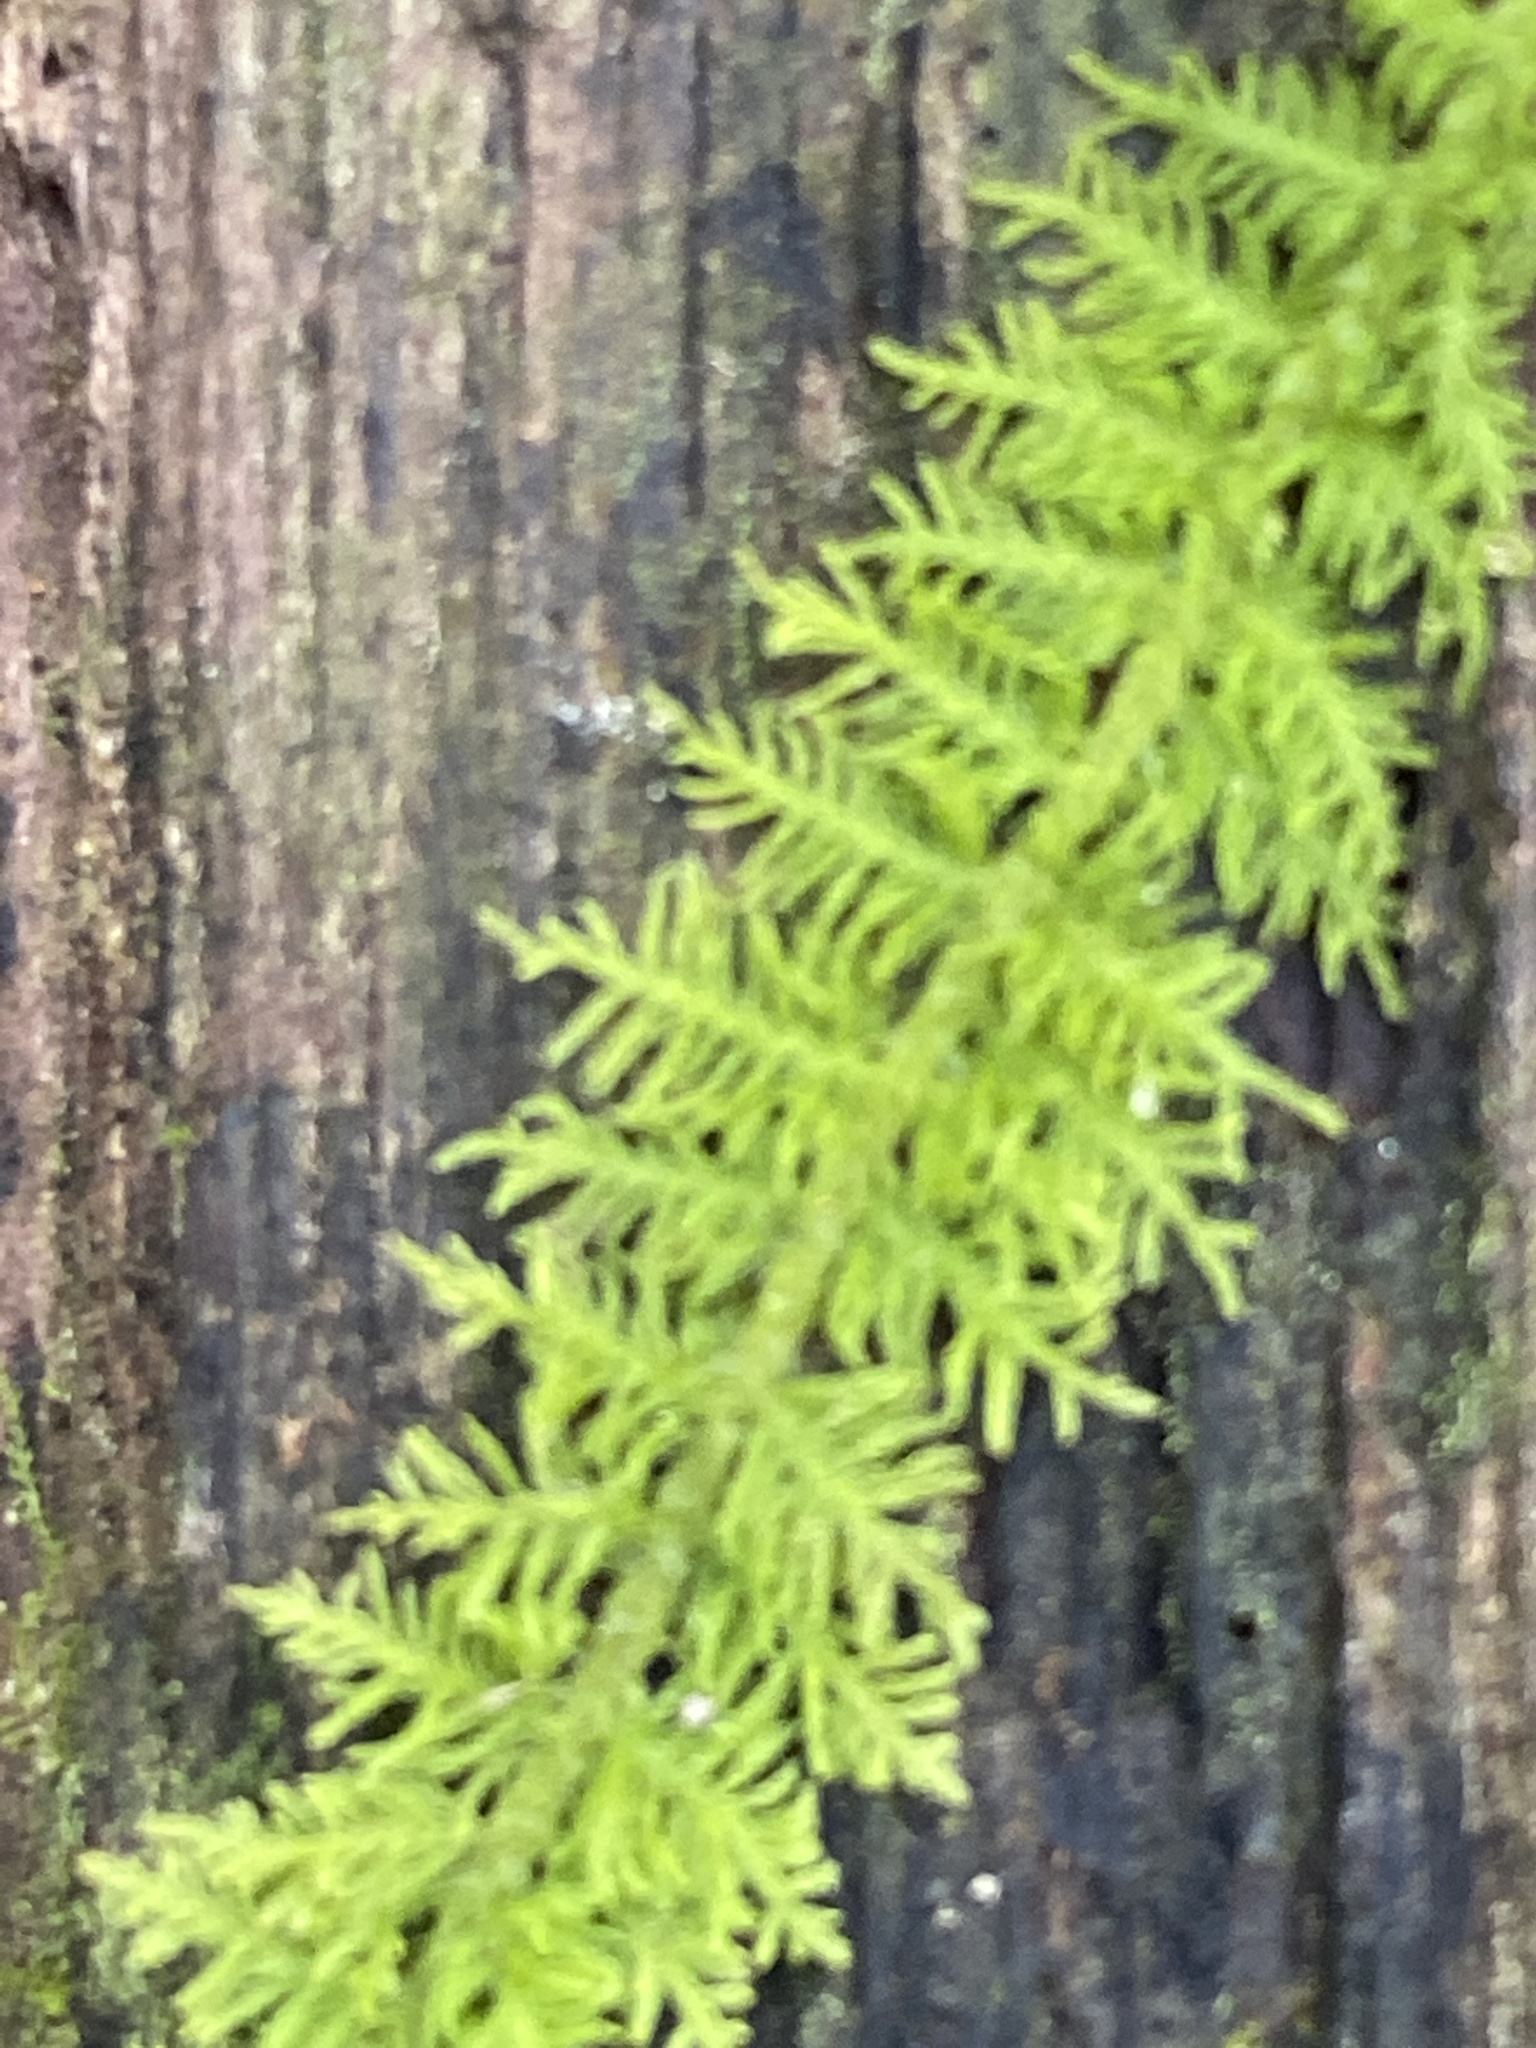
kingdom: Plantae
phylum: Bryophyta
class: Bryopsida
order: Hypnales
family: Thuidiaceae
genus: Thuidium
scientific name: Thuidium delicatulum
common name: Delicate fern moss
